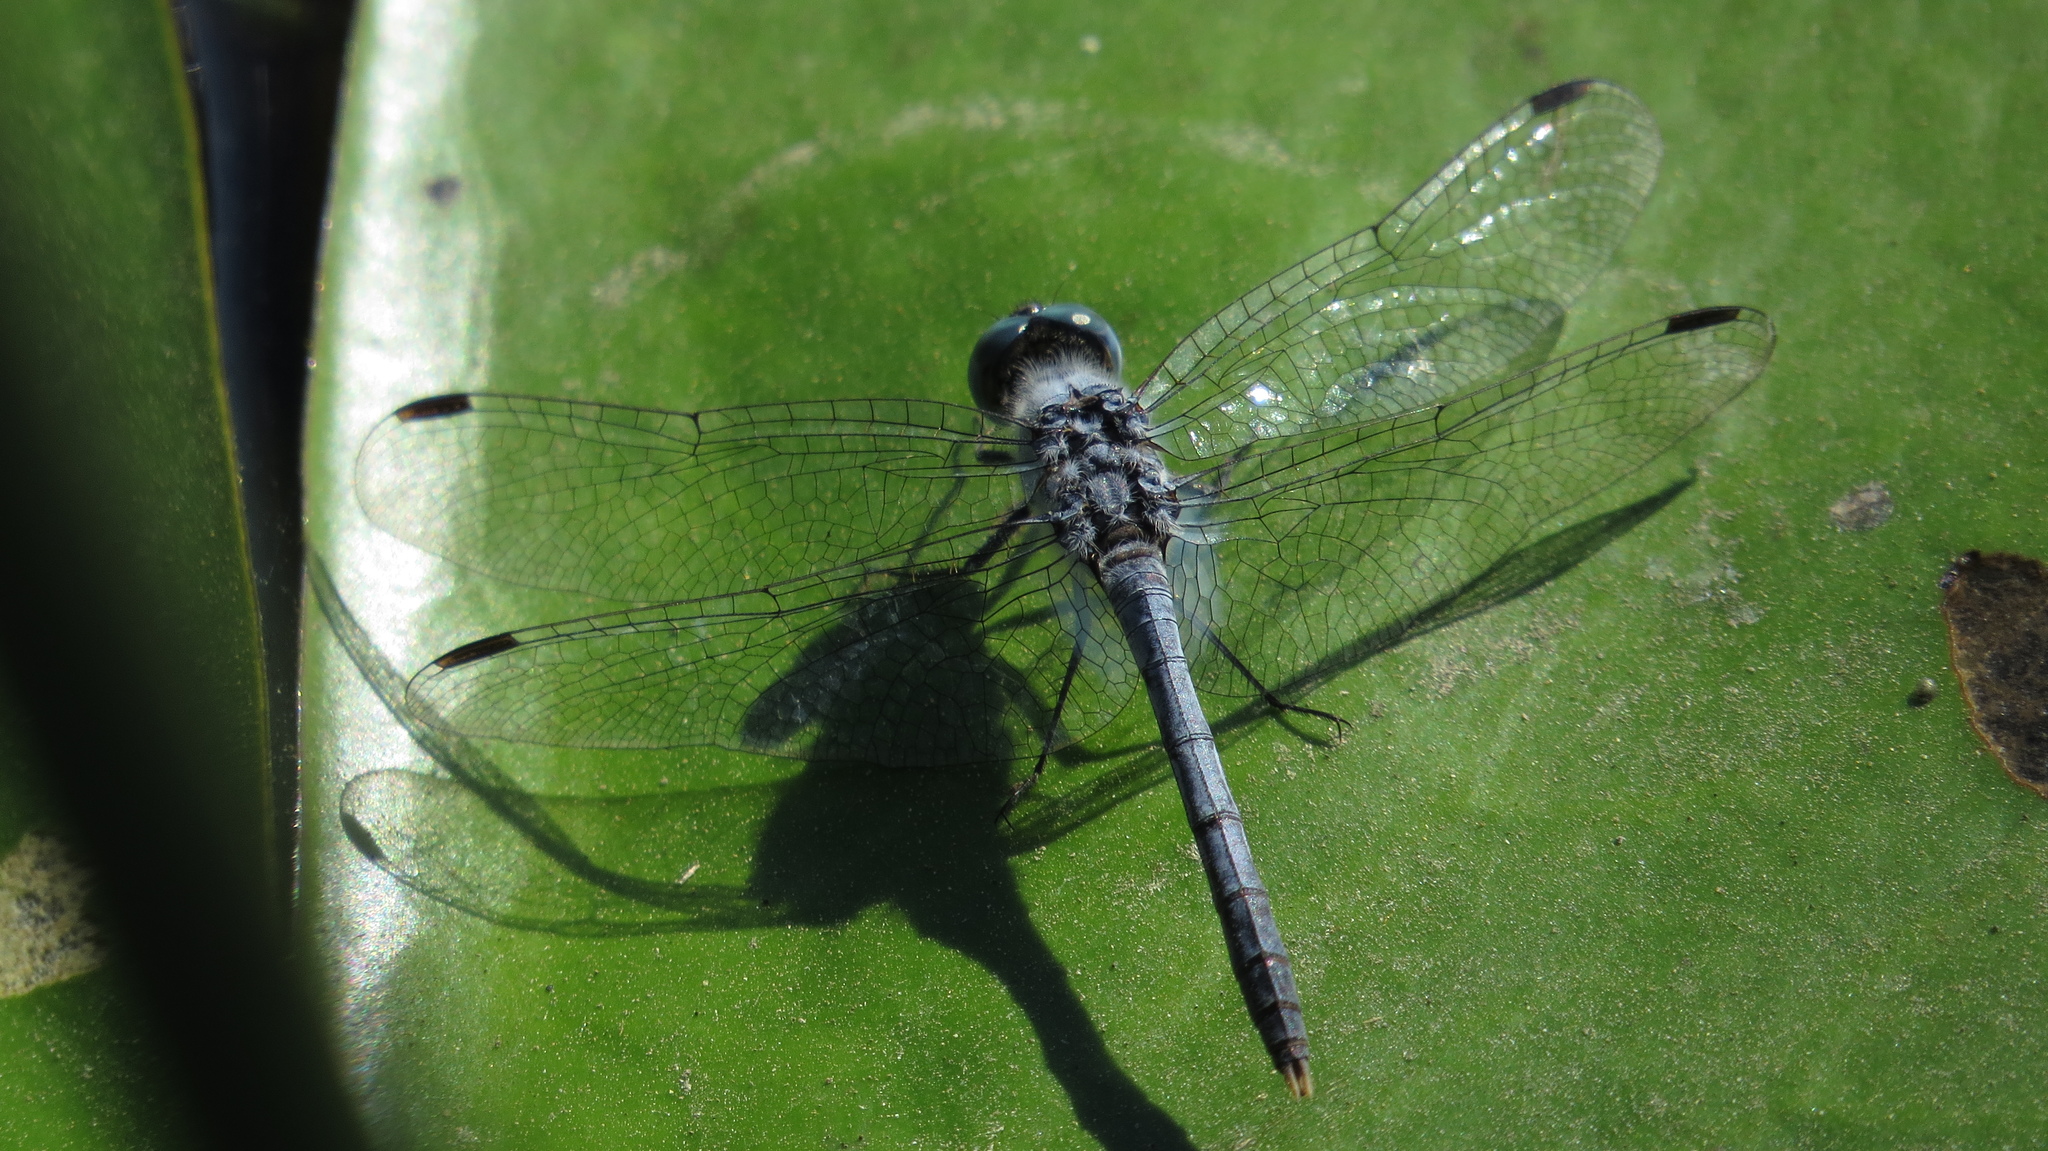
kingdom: Animalia
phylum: Arthropoda
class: Insecta
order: Odonata
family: Libellulidae
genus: Diplacodes
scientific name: Diplacodes trivialis
